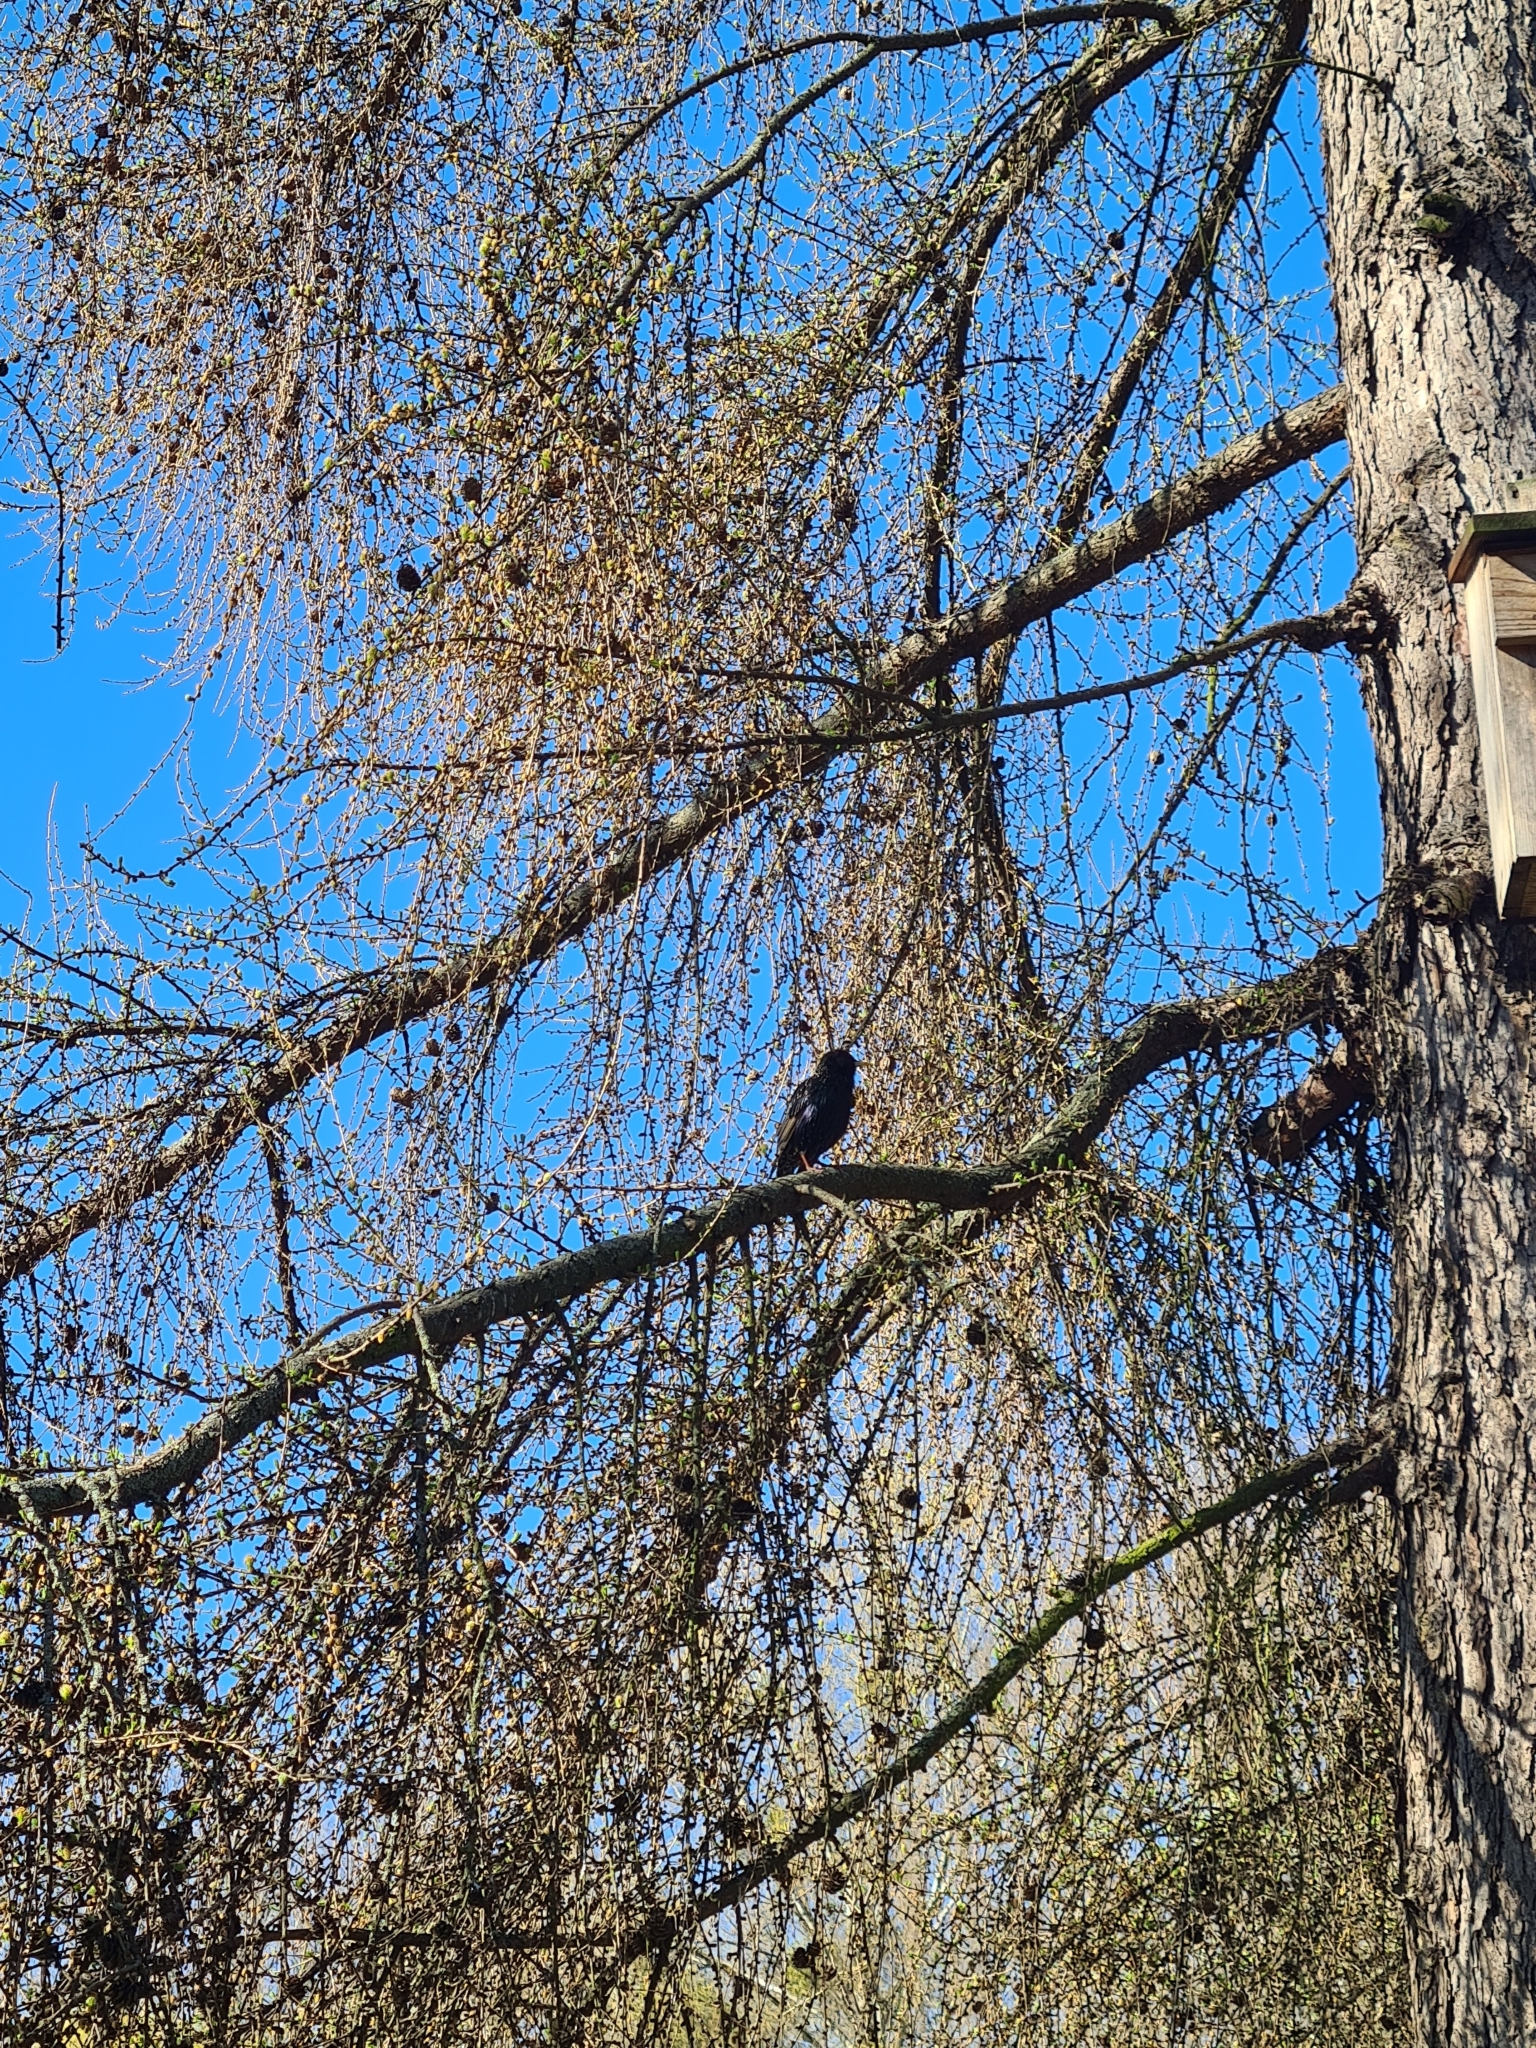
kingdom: Animalia
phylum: Chordata
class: Aves
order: Passeriformes
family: Sturnidae
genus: Sturnus
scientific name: Sturnus vulgaris
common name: Common starling
